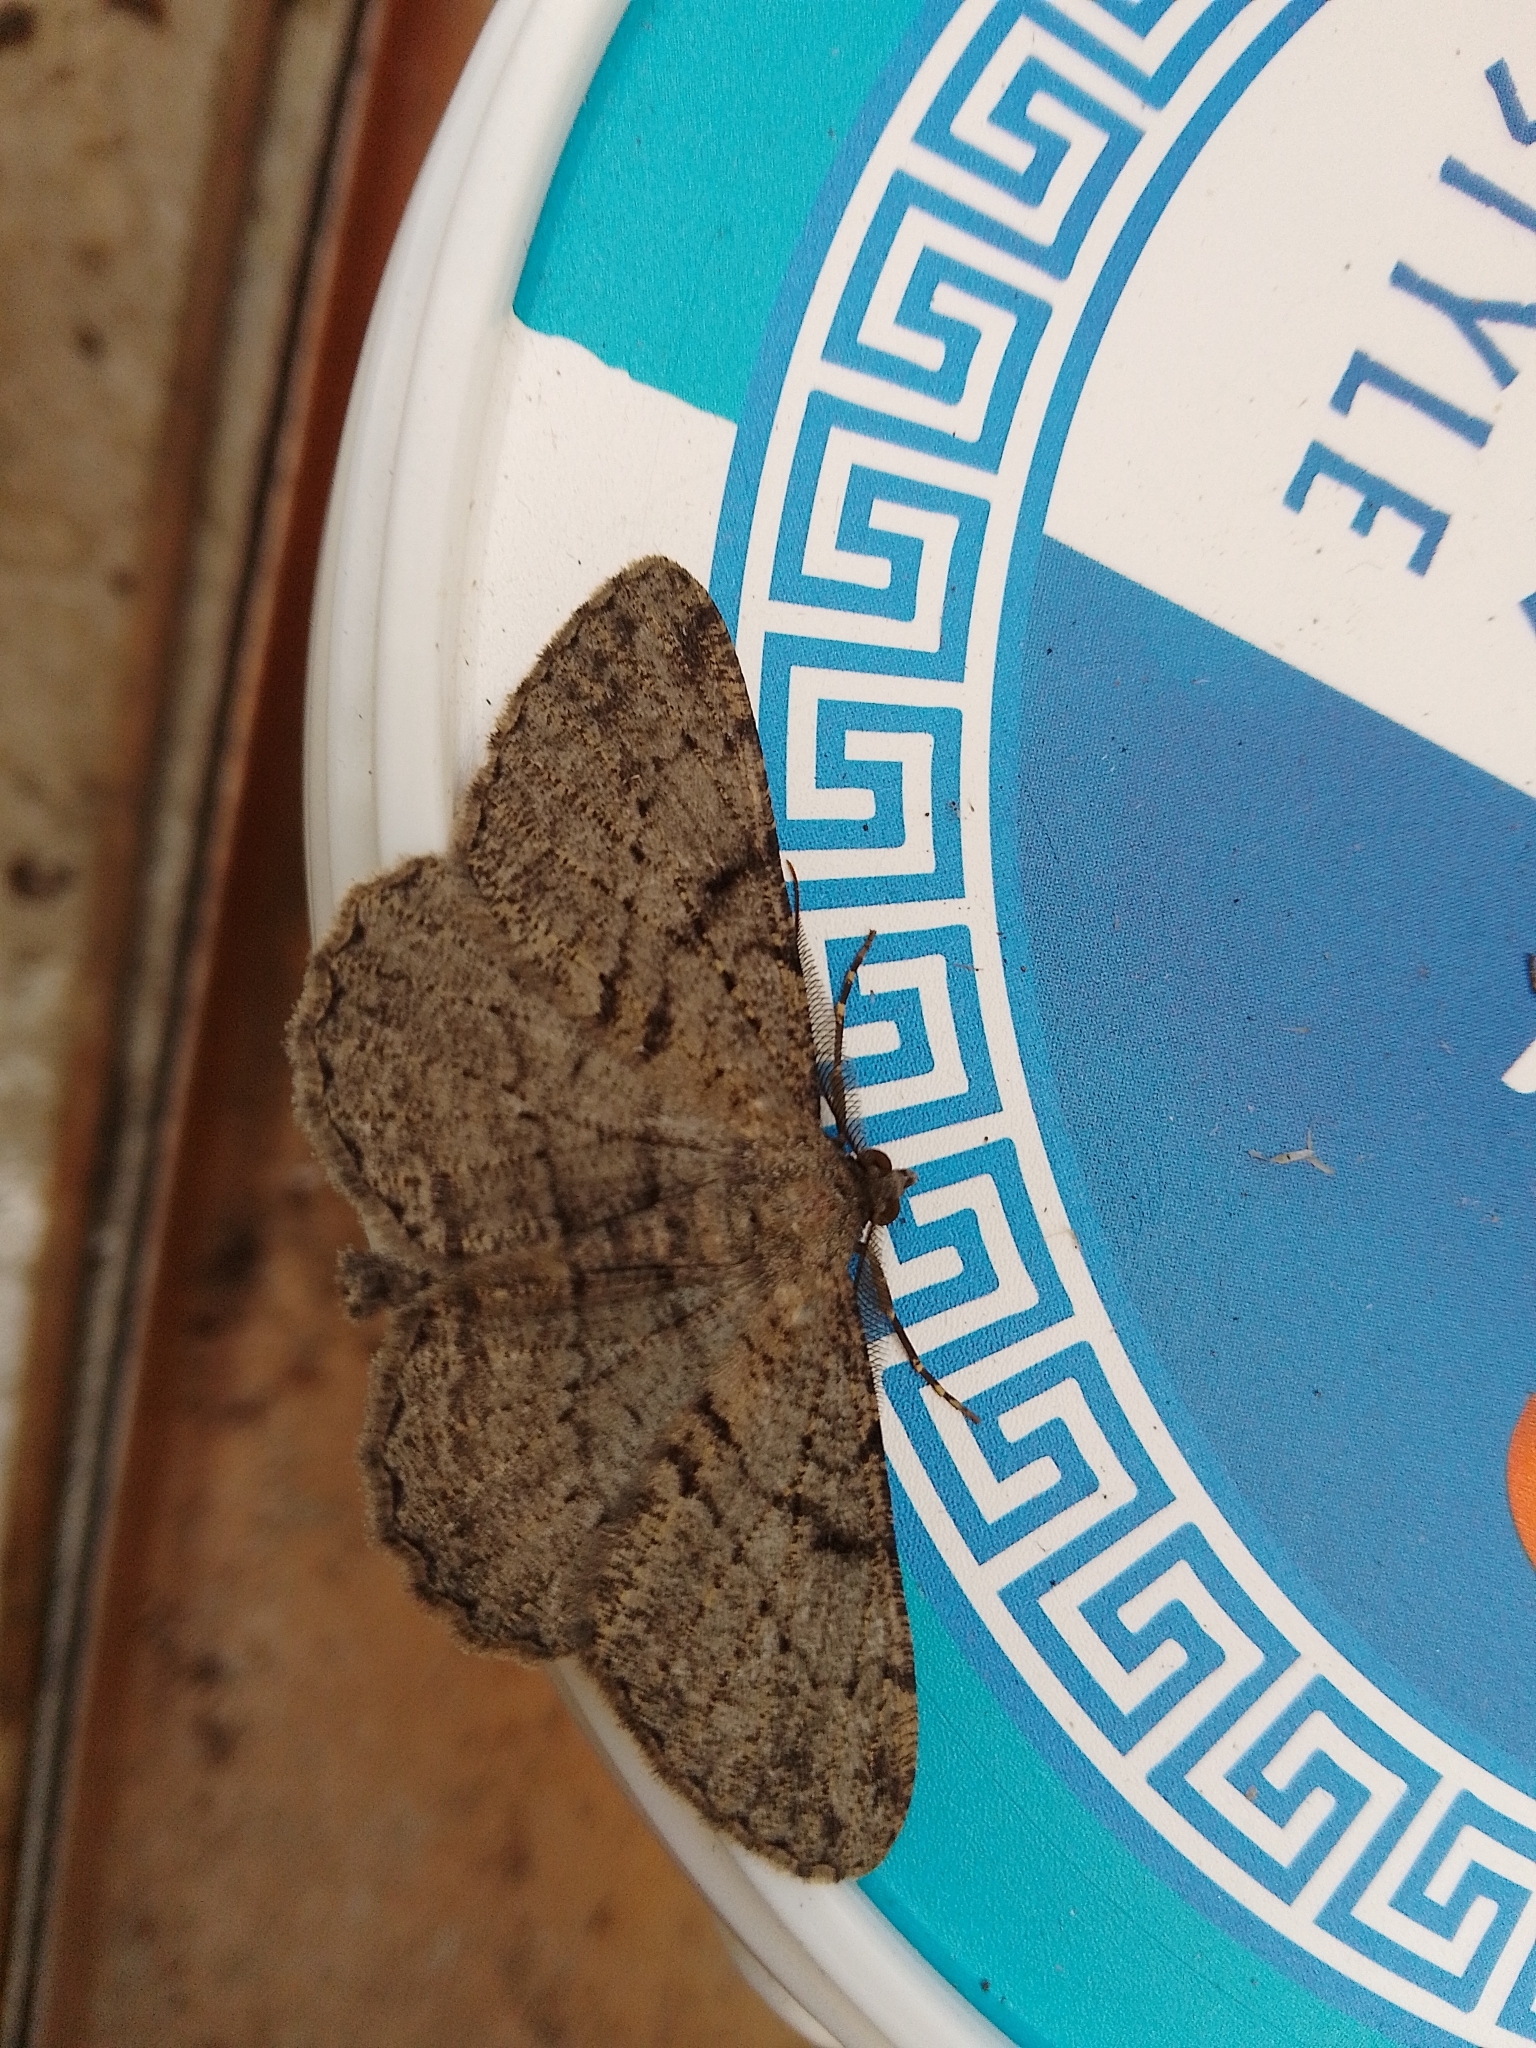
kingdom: Animalia
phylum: Arthropoda
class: Insecta
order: Lepidoptera
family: Geometridae
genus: Peribatodes
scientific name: Peribatodes rhomboidaria
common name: Willow beauty
